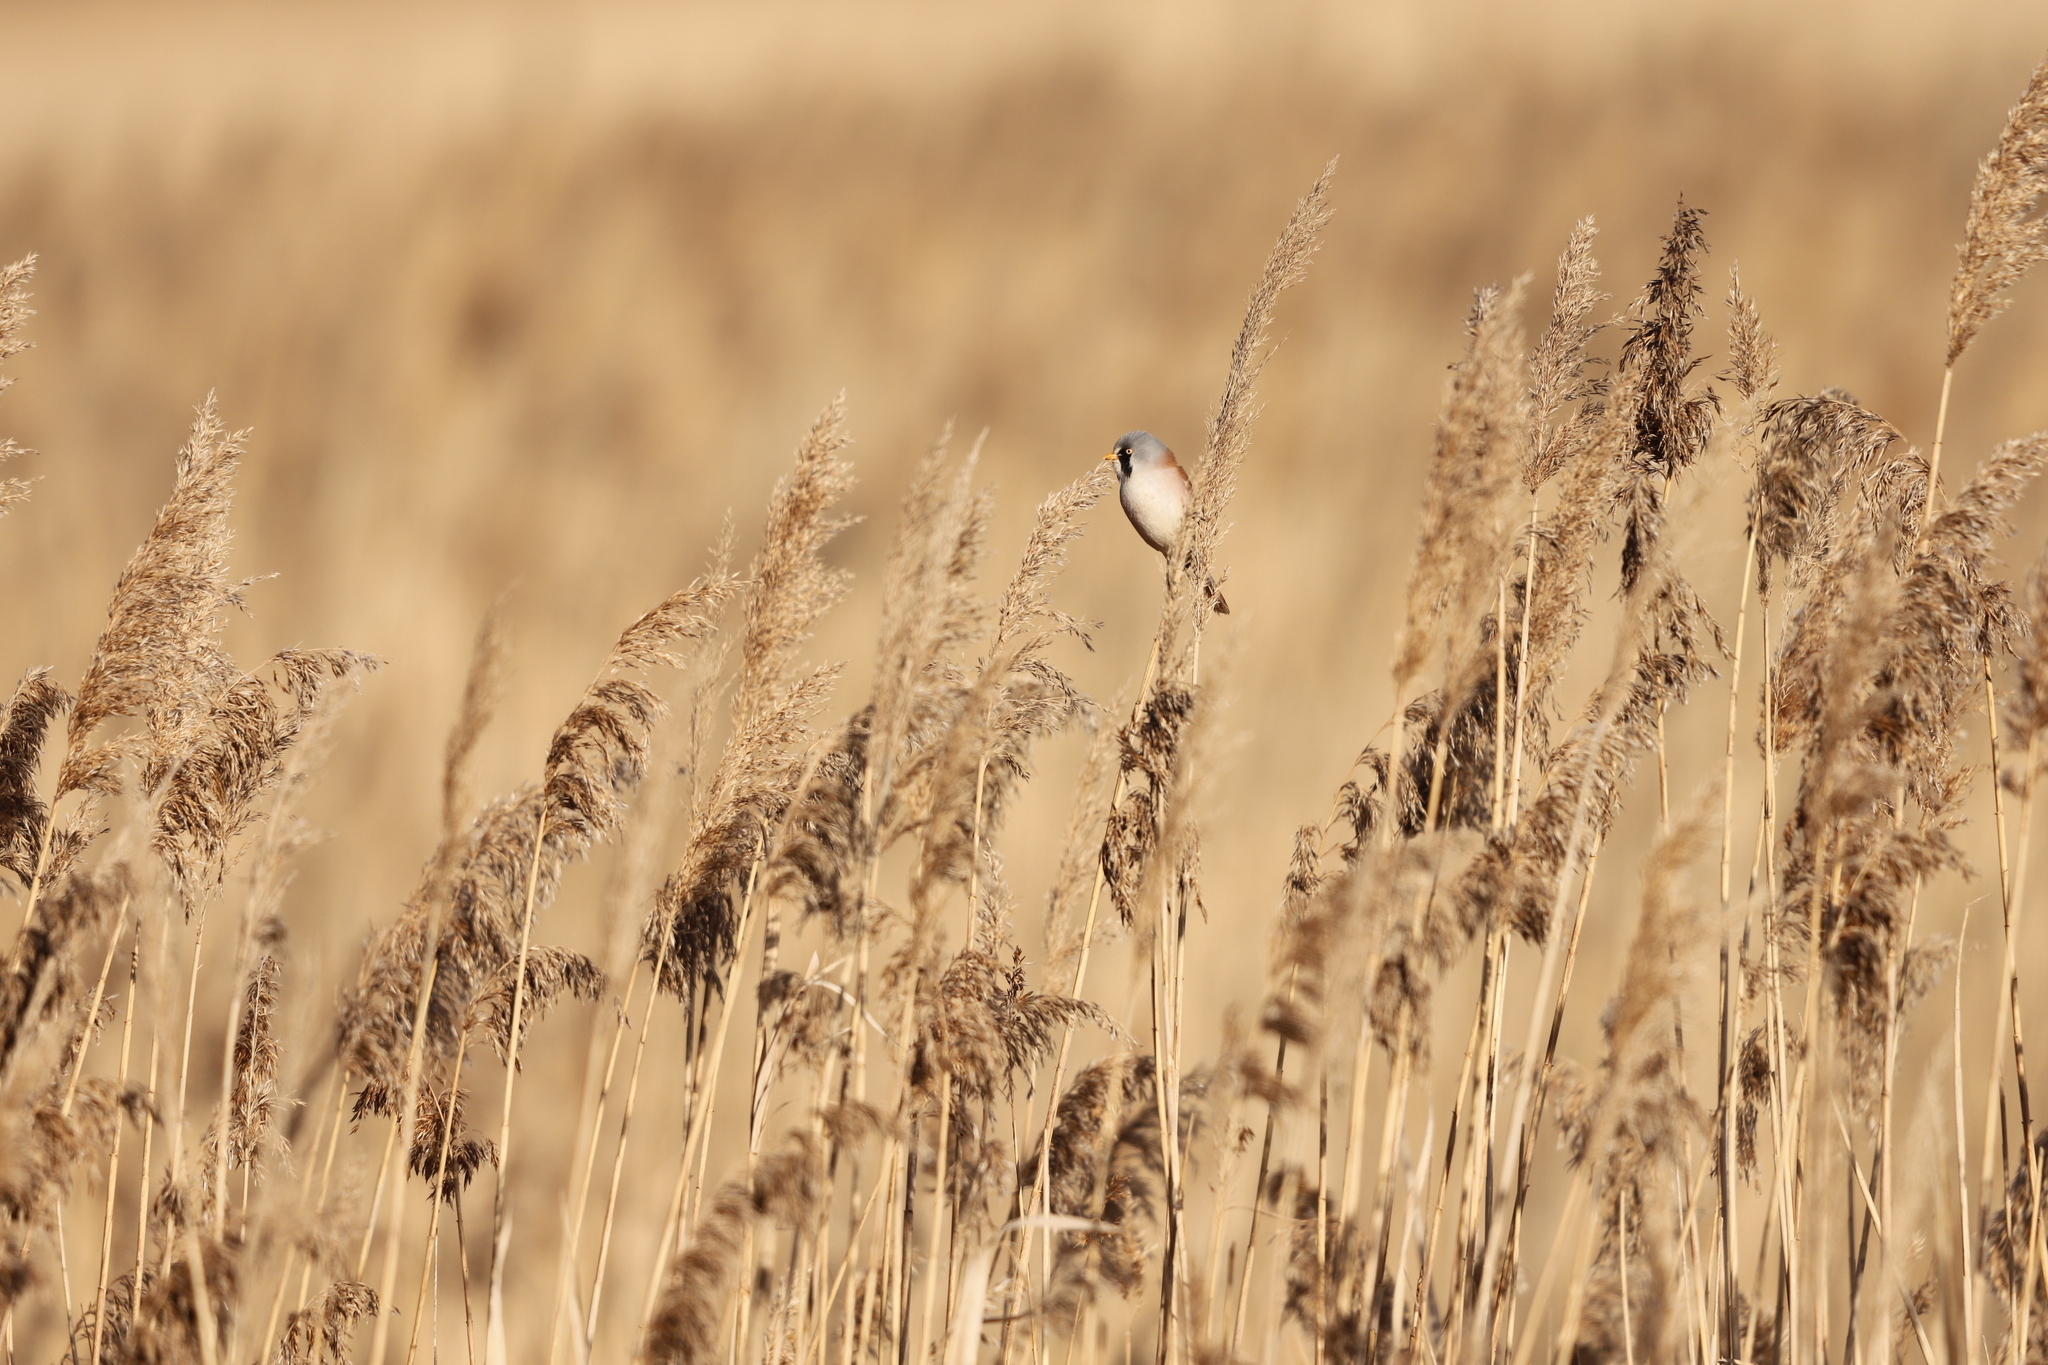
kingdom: Animalia
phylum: Chordata
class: Aves
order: Passeriformes
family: Panuridae
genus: Panurus
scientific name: Panurus biarmicus
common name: Bearded reedling
